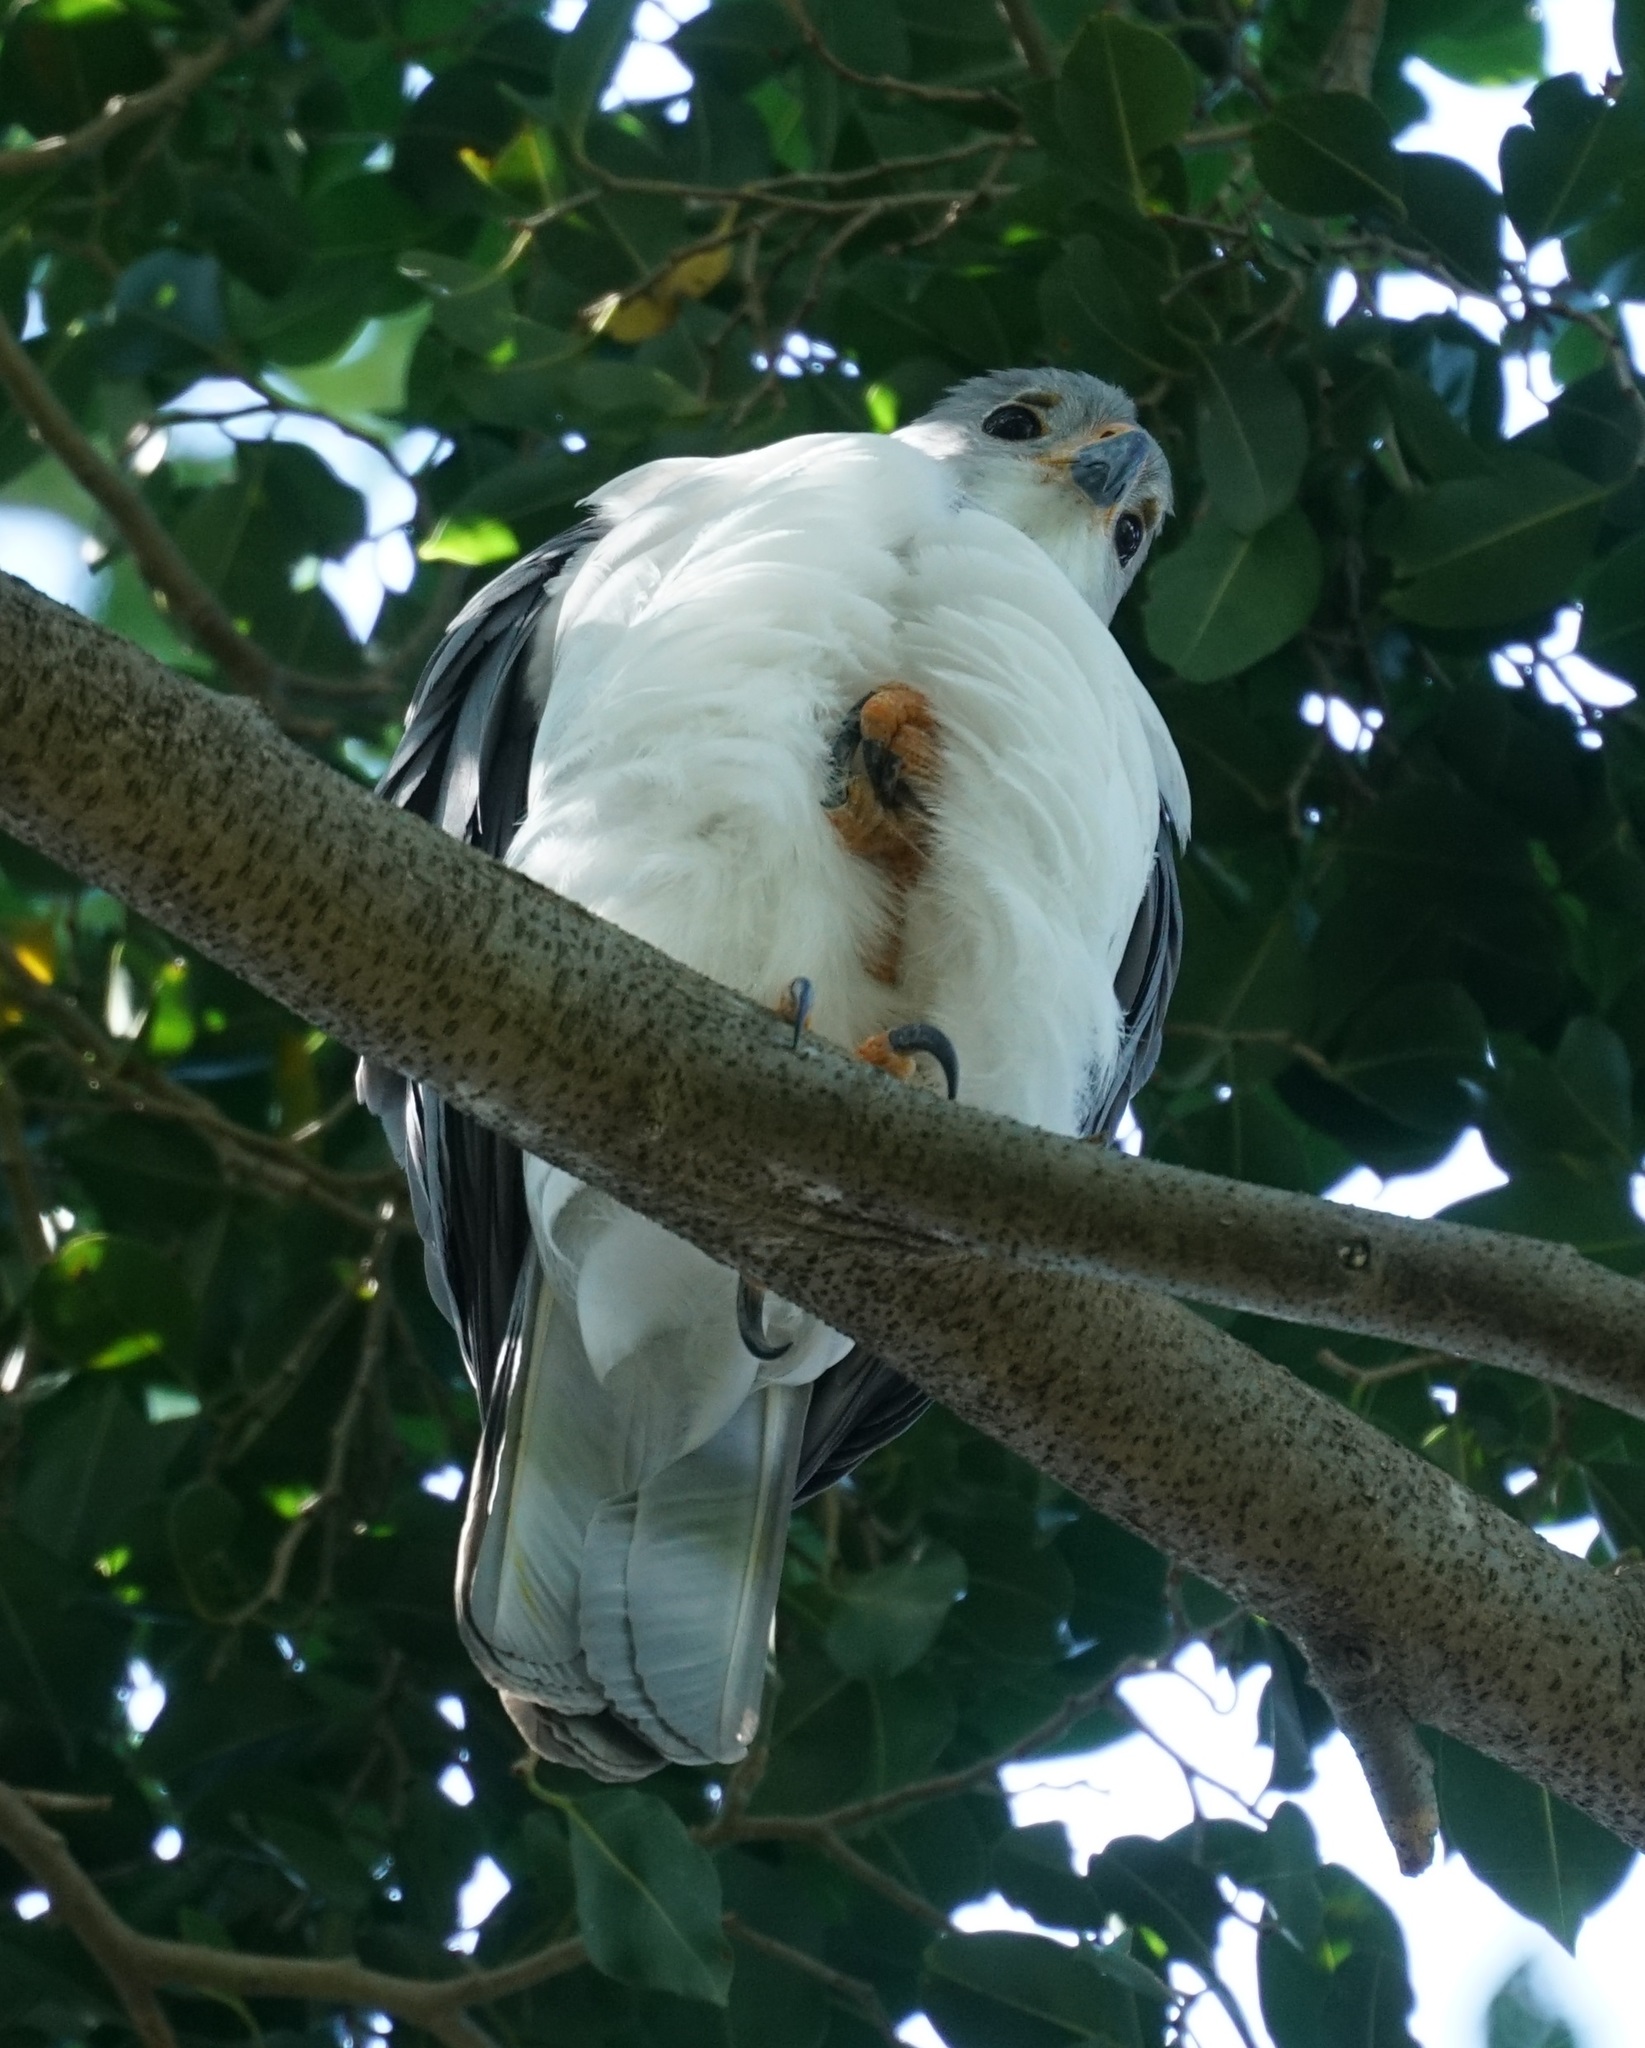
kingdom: Animalia
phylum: Chordata
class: Aves
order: Accipitriformes
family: Accipitridae
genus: Accipiter
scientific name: Accipiter novaehollandiae
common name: Grey goshawk
